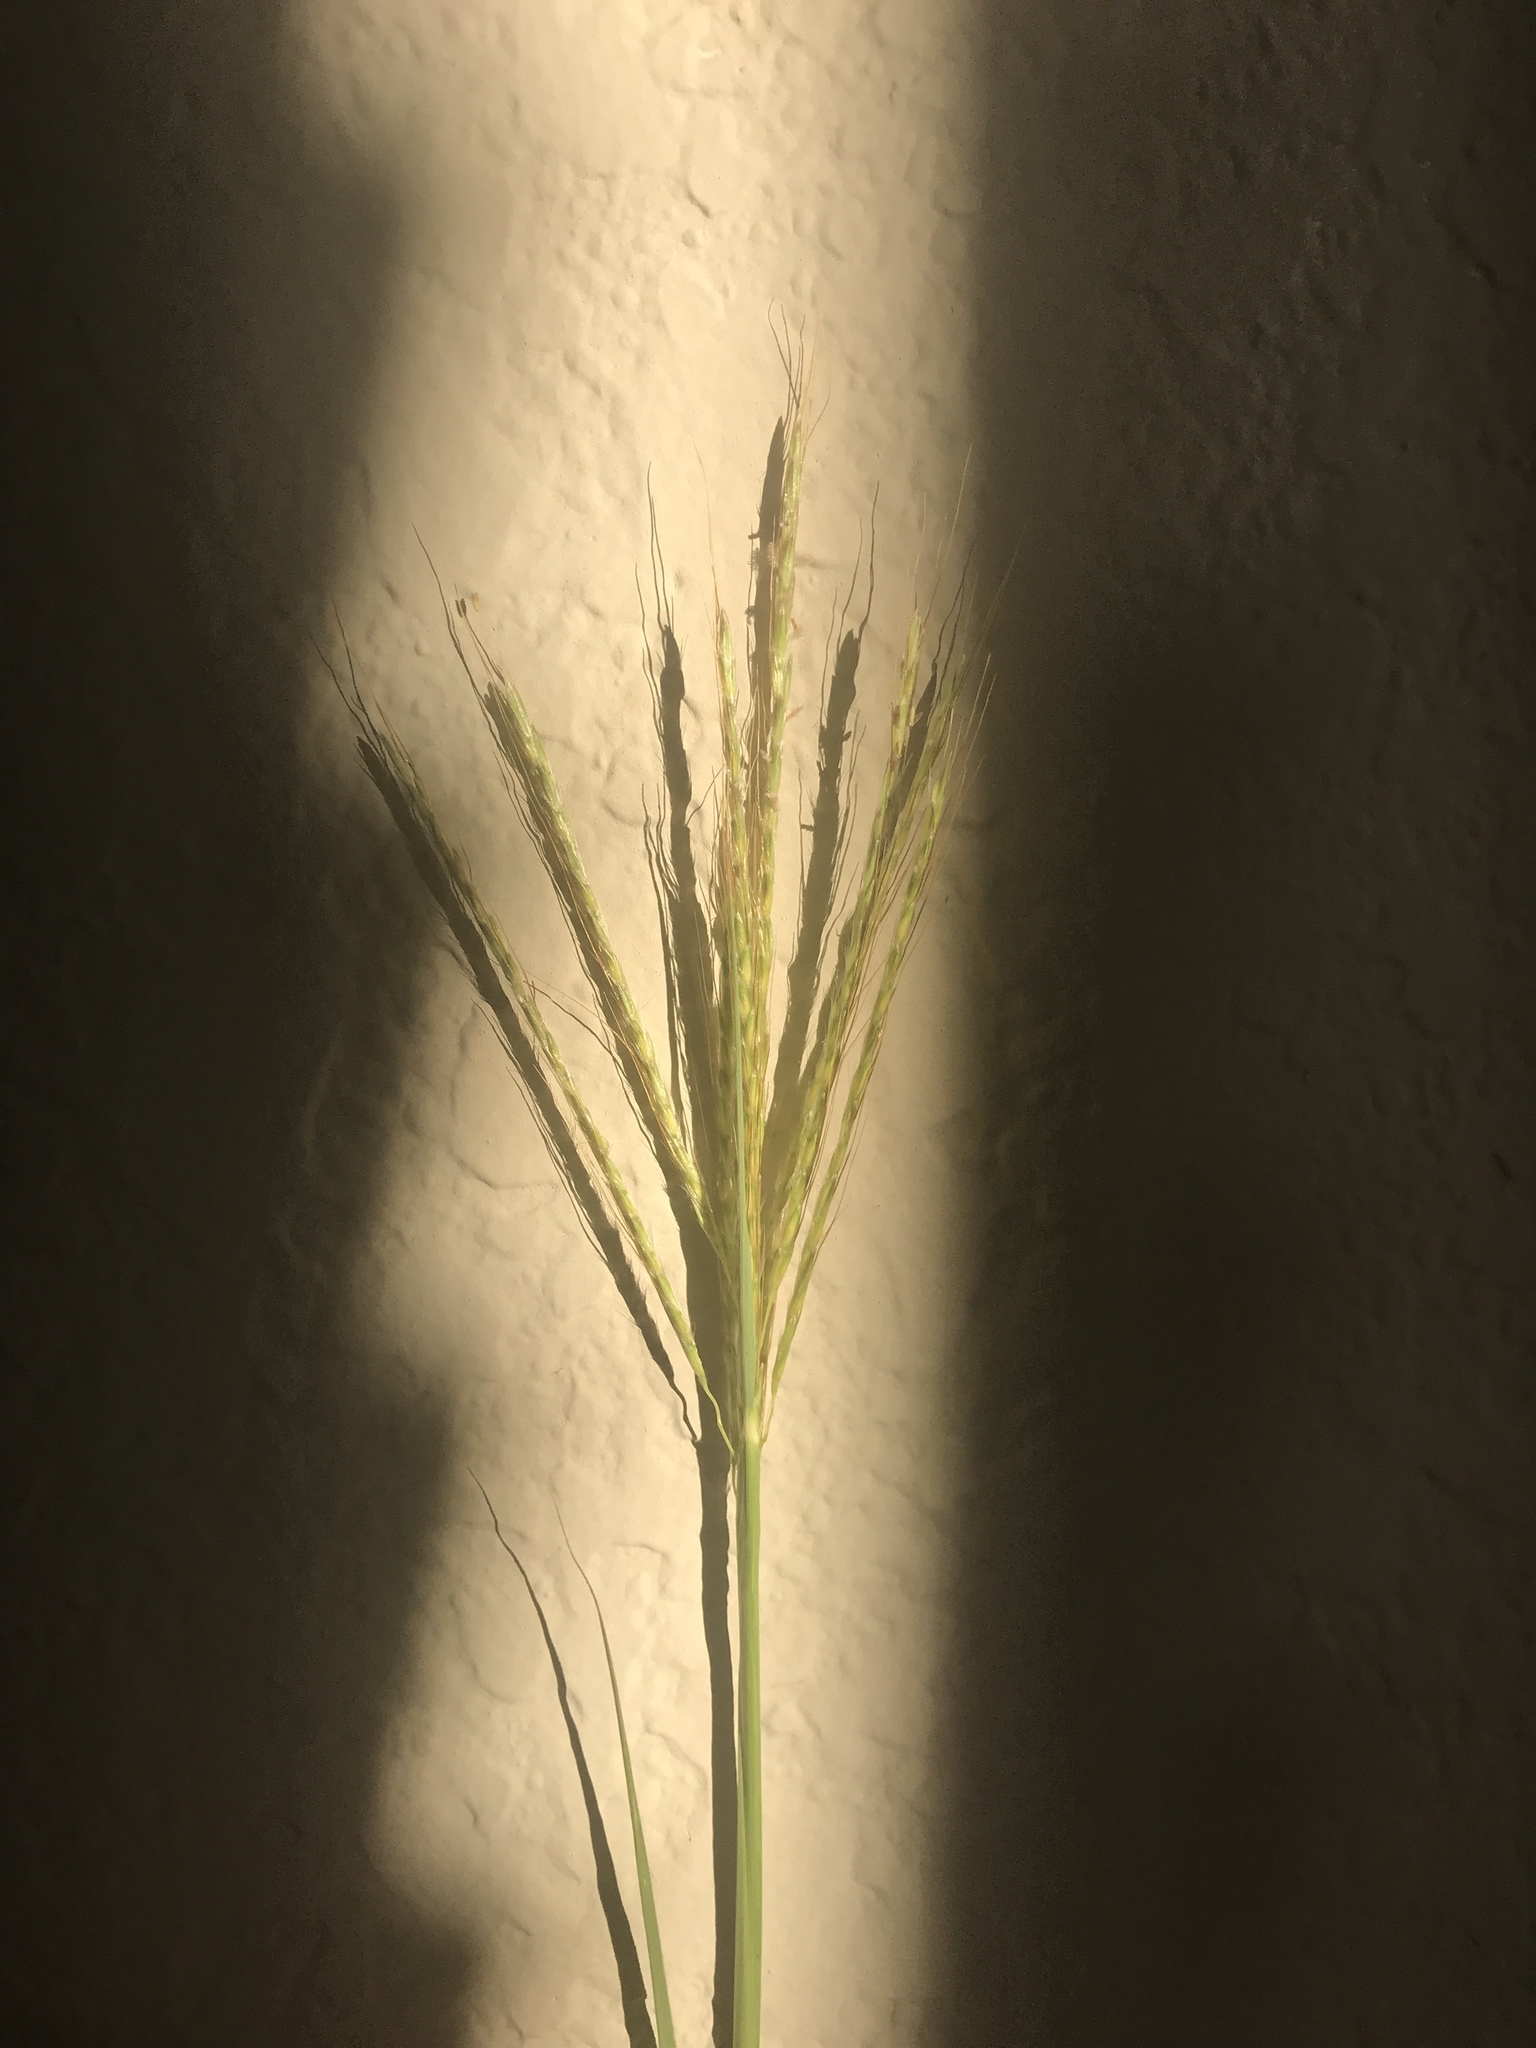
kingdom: Plantae
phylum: Tracheophyta
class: Liliopsida
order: Poales
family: Poaceae
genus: Bothriochloa
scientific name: Bothriochloa ischaemum
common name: Yellow bluestem
